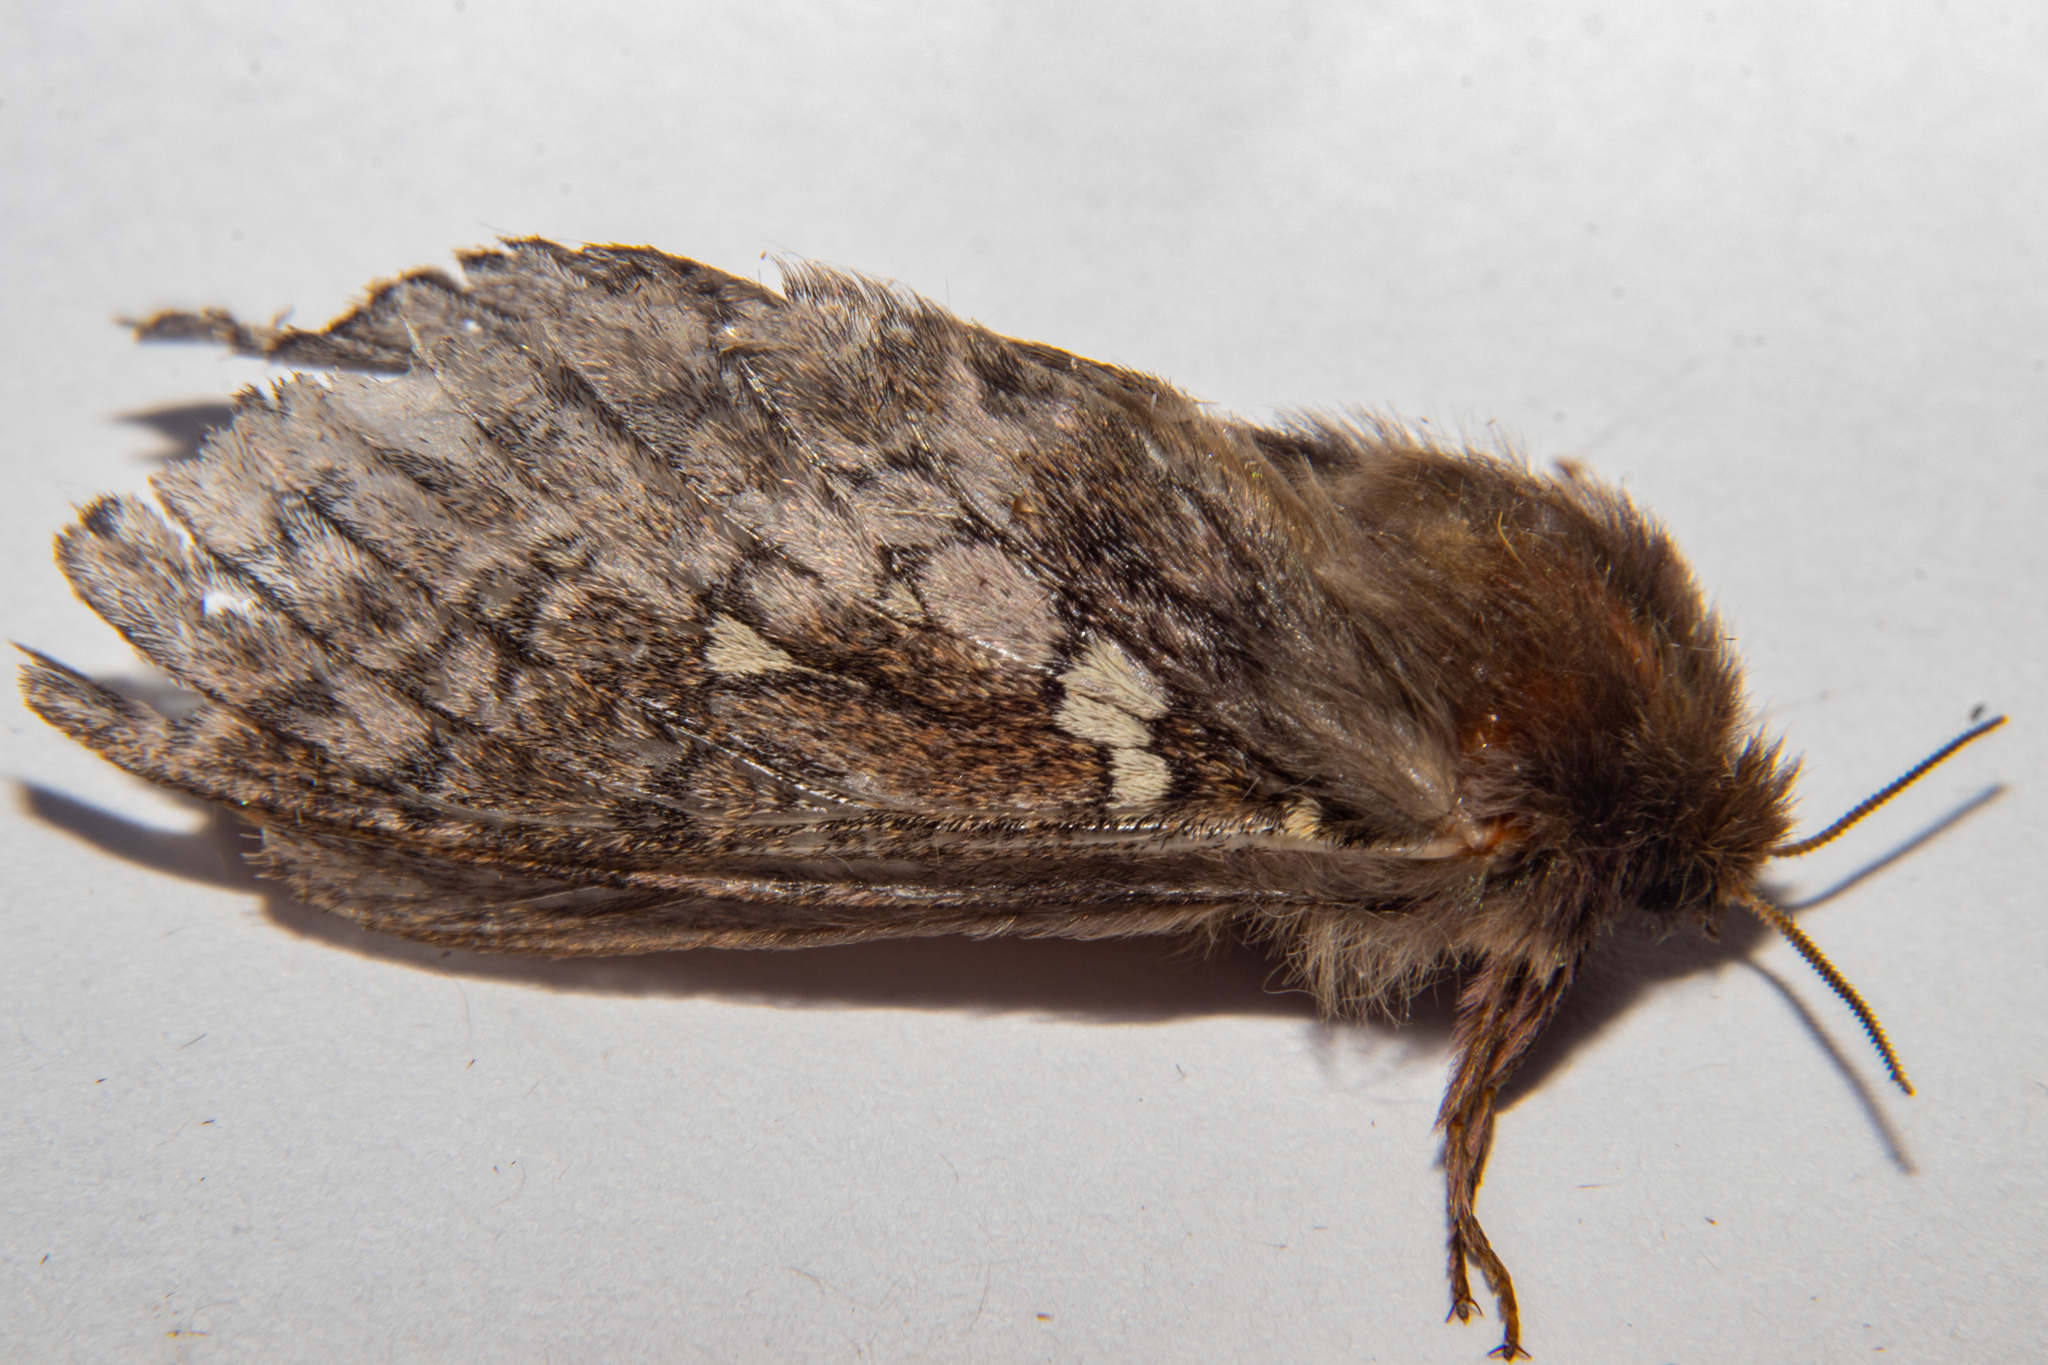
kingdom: Animalia
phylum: Arthropoda
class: Insecta
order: Lepidoptera
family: Hepialidae
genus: Wiseana
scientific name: Wiseana copularis
